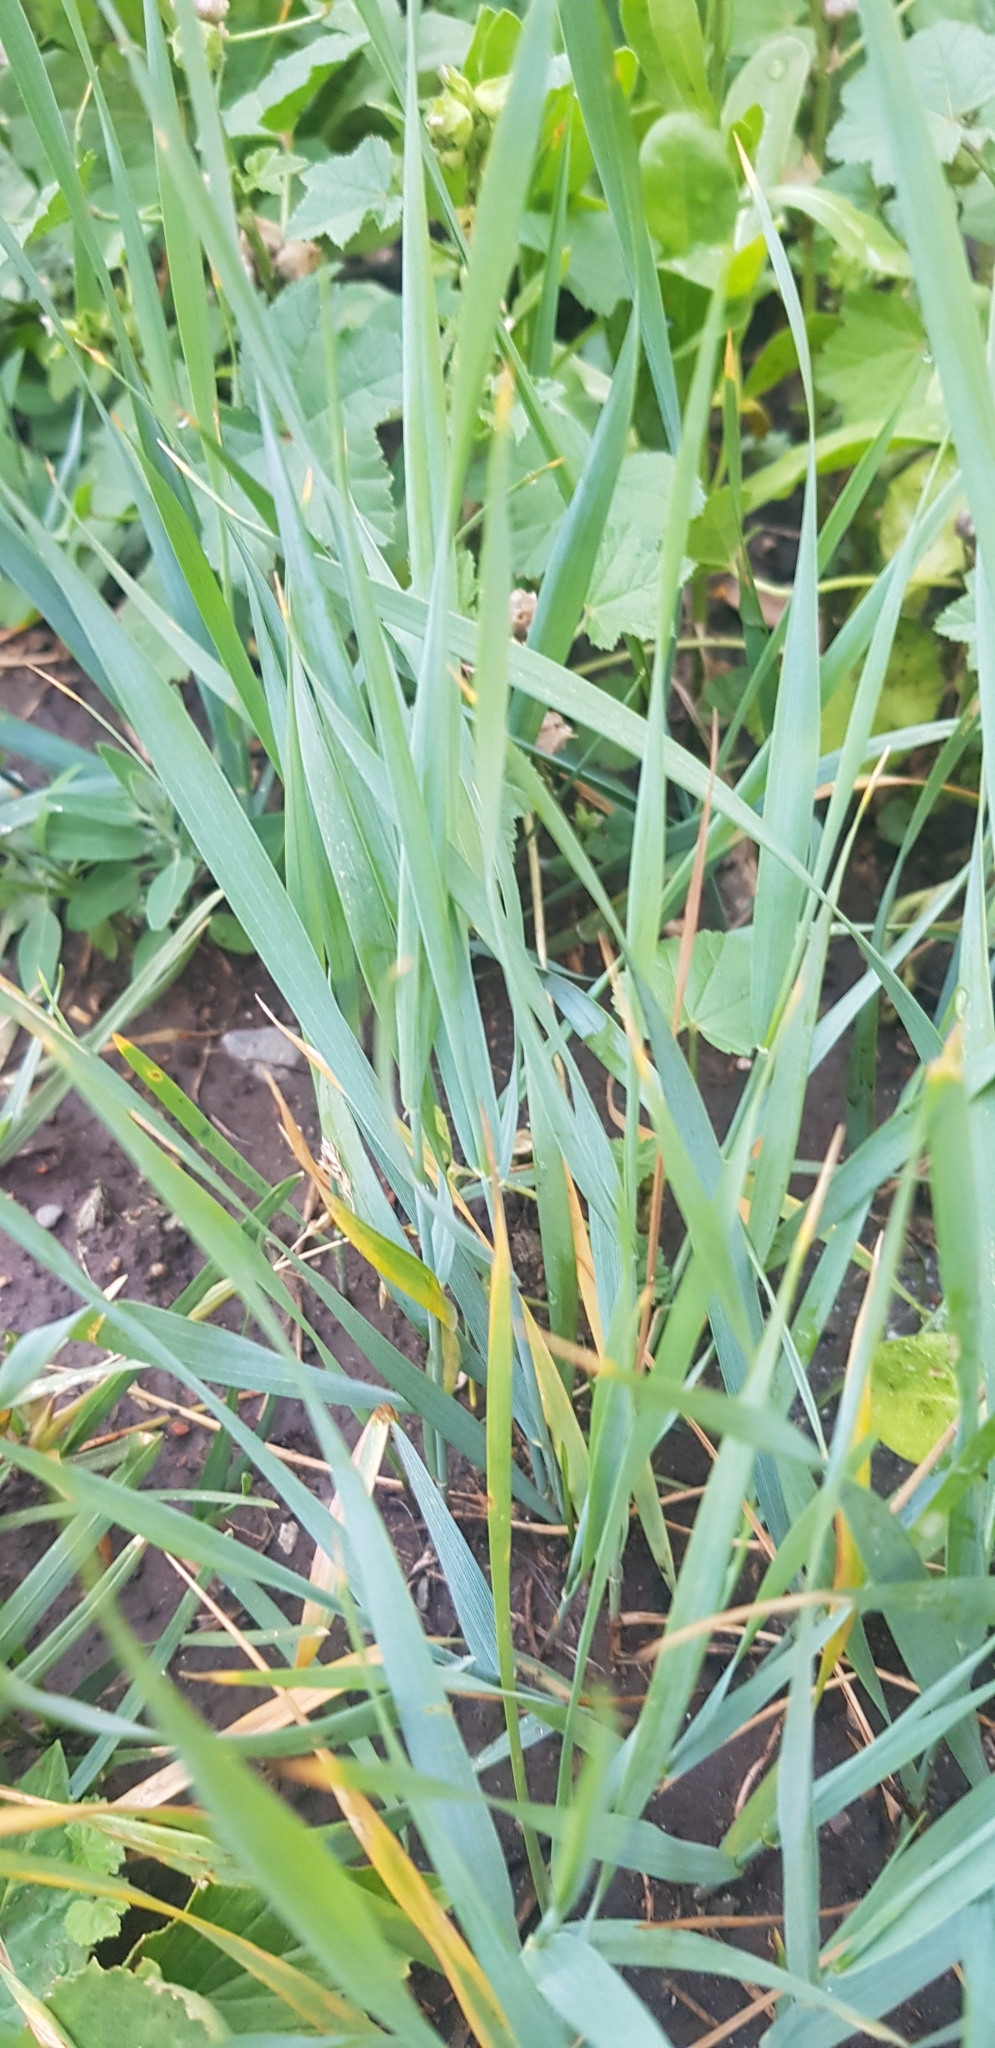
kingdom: Plantae
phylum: Tracheophyta
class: Liliopsida
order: Poales
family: Poaceae
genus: Leymus
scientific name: Leymus chinensis
